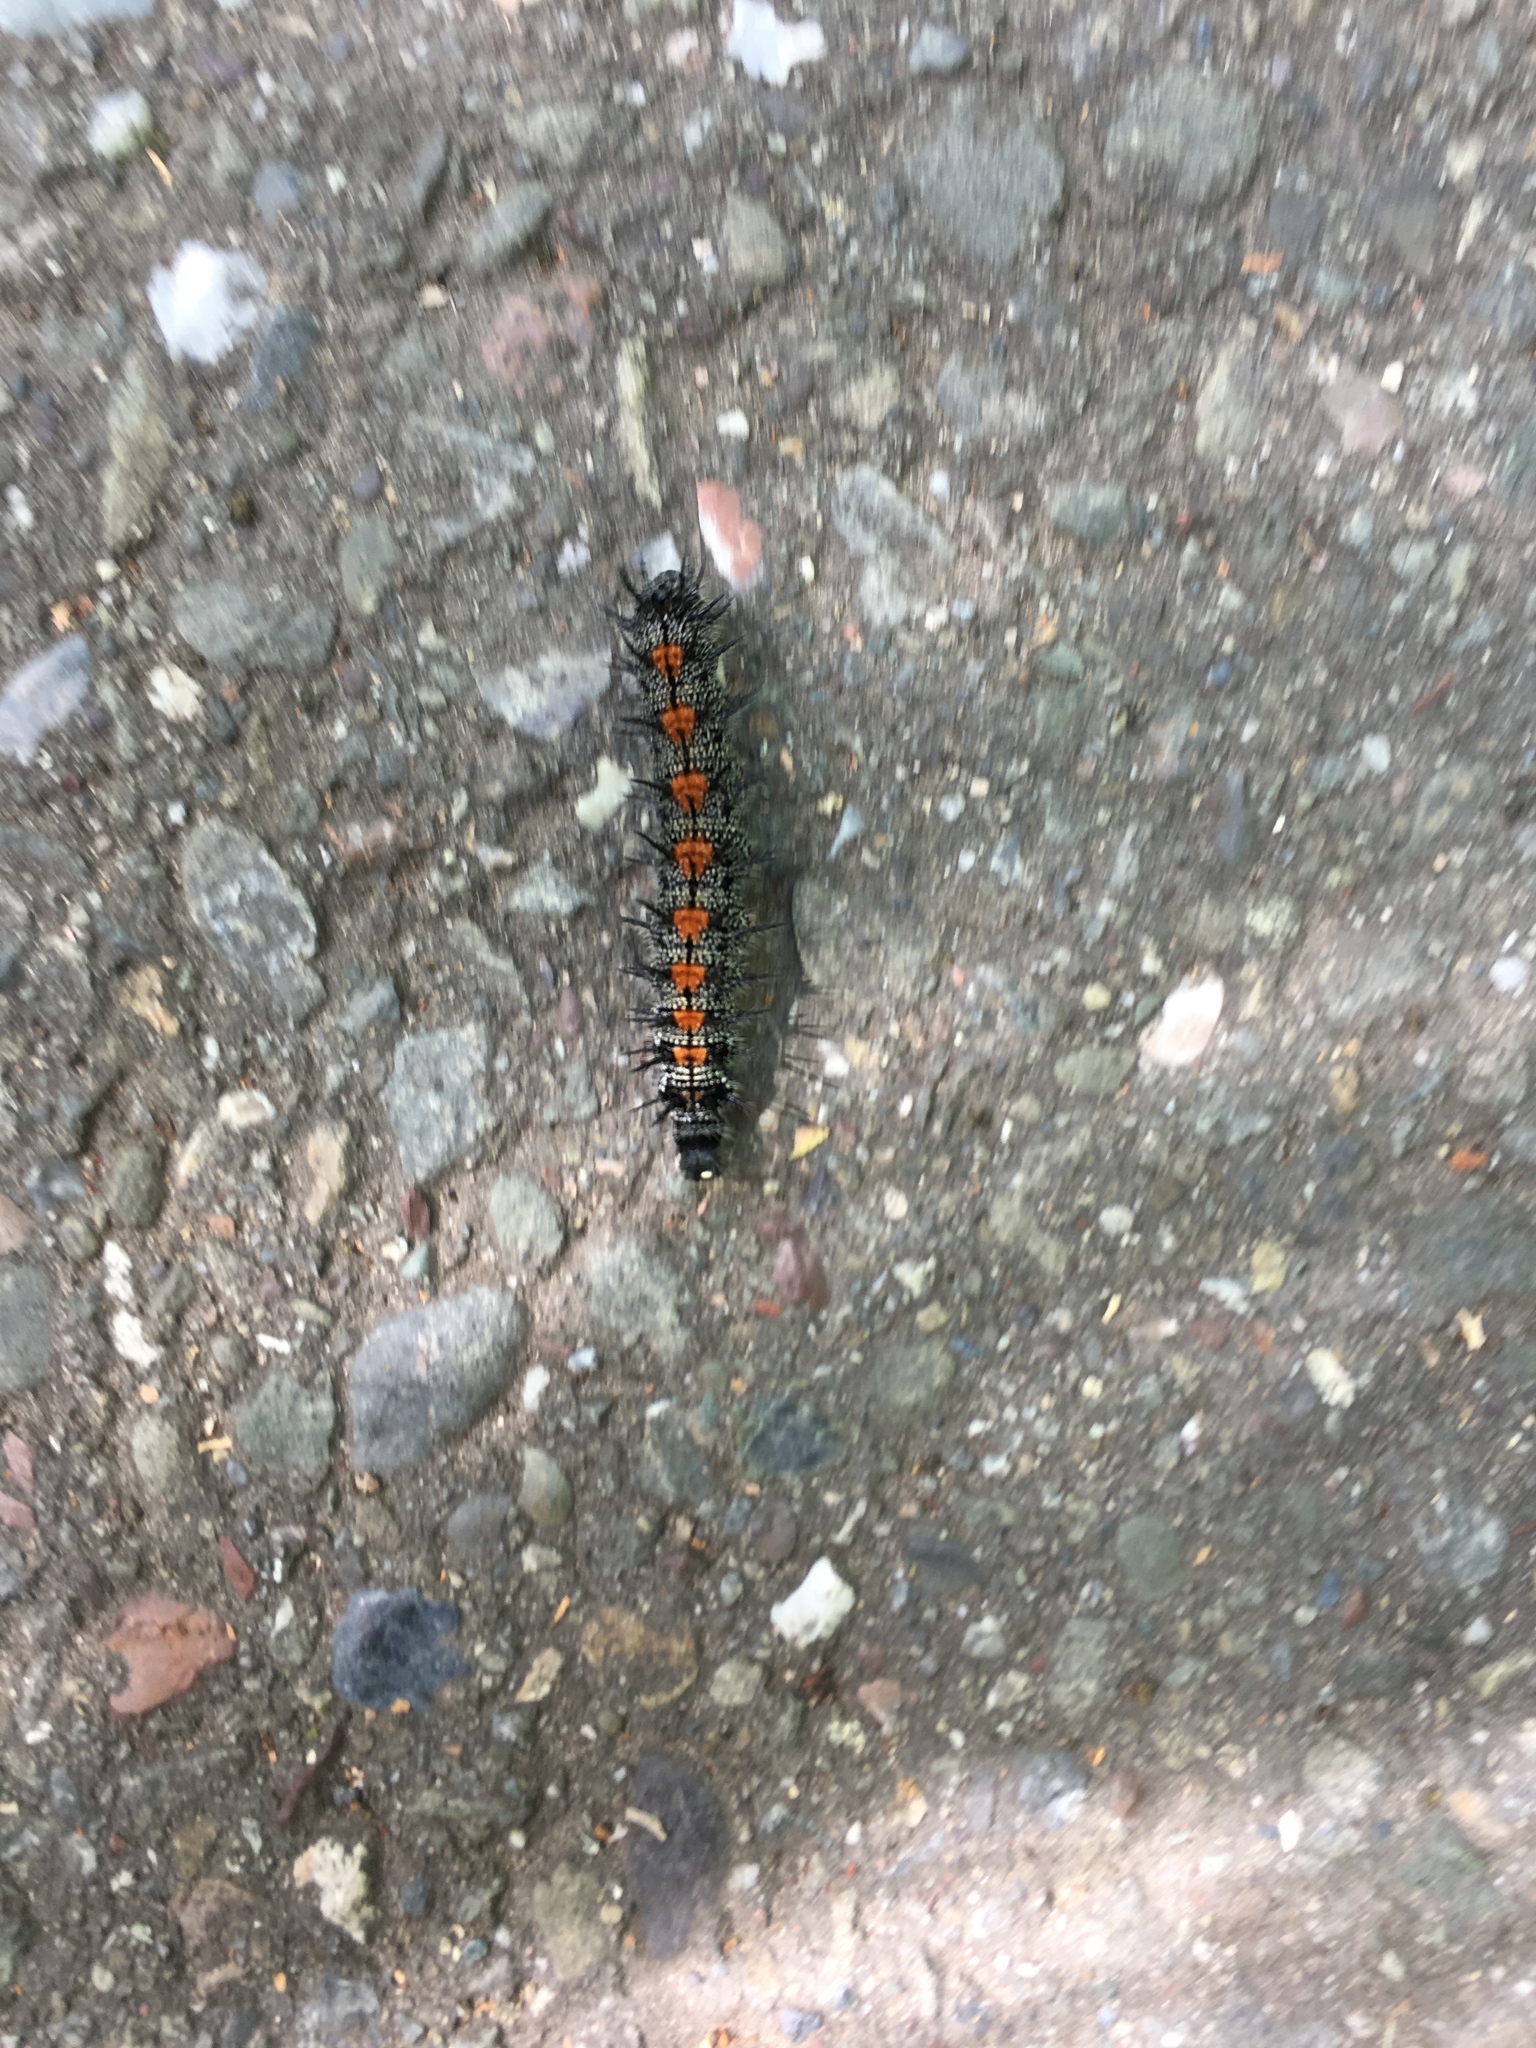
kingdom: Animalia
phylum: Arthropoda
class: Insecta
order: Lepidoptera
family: Nymphalidae
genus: Nymphalis
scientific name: Nymphalis antiopa
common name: Camberwell beauty
